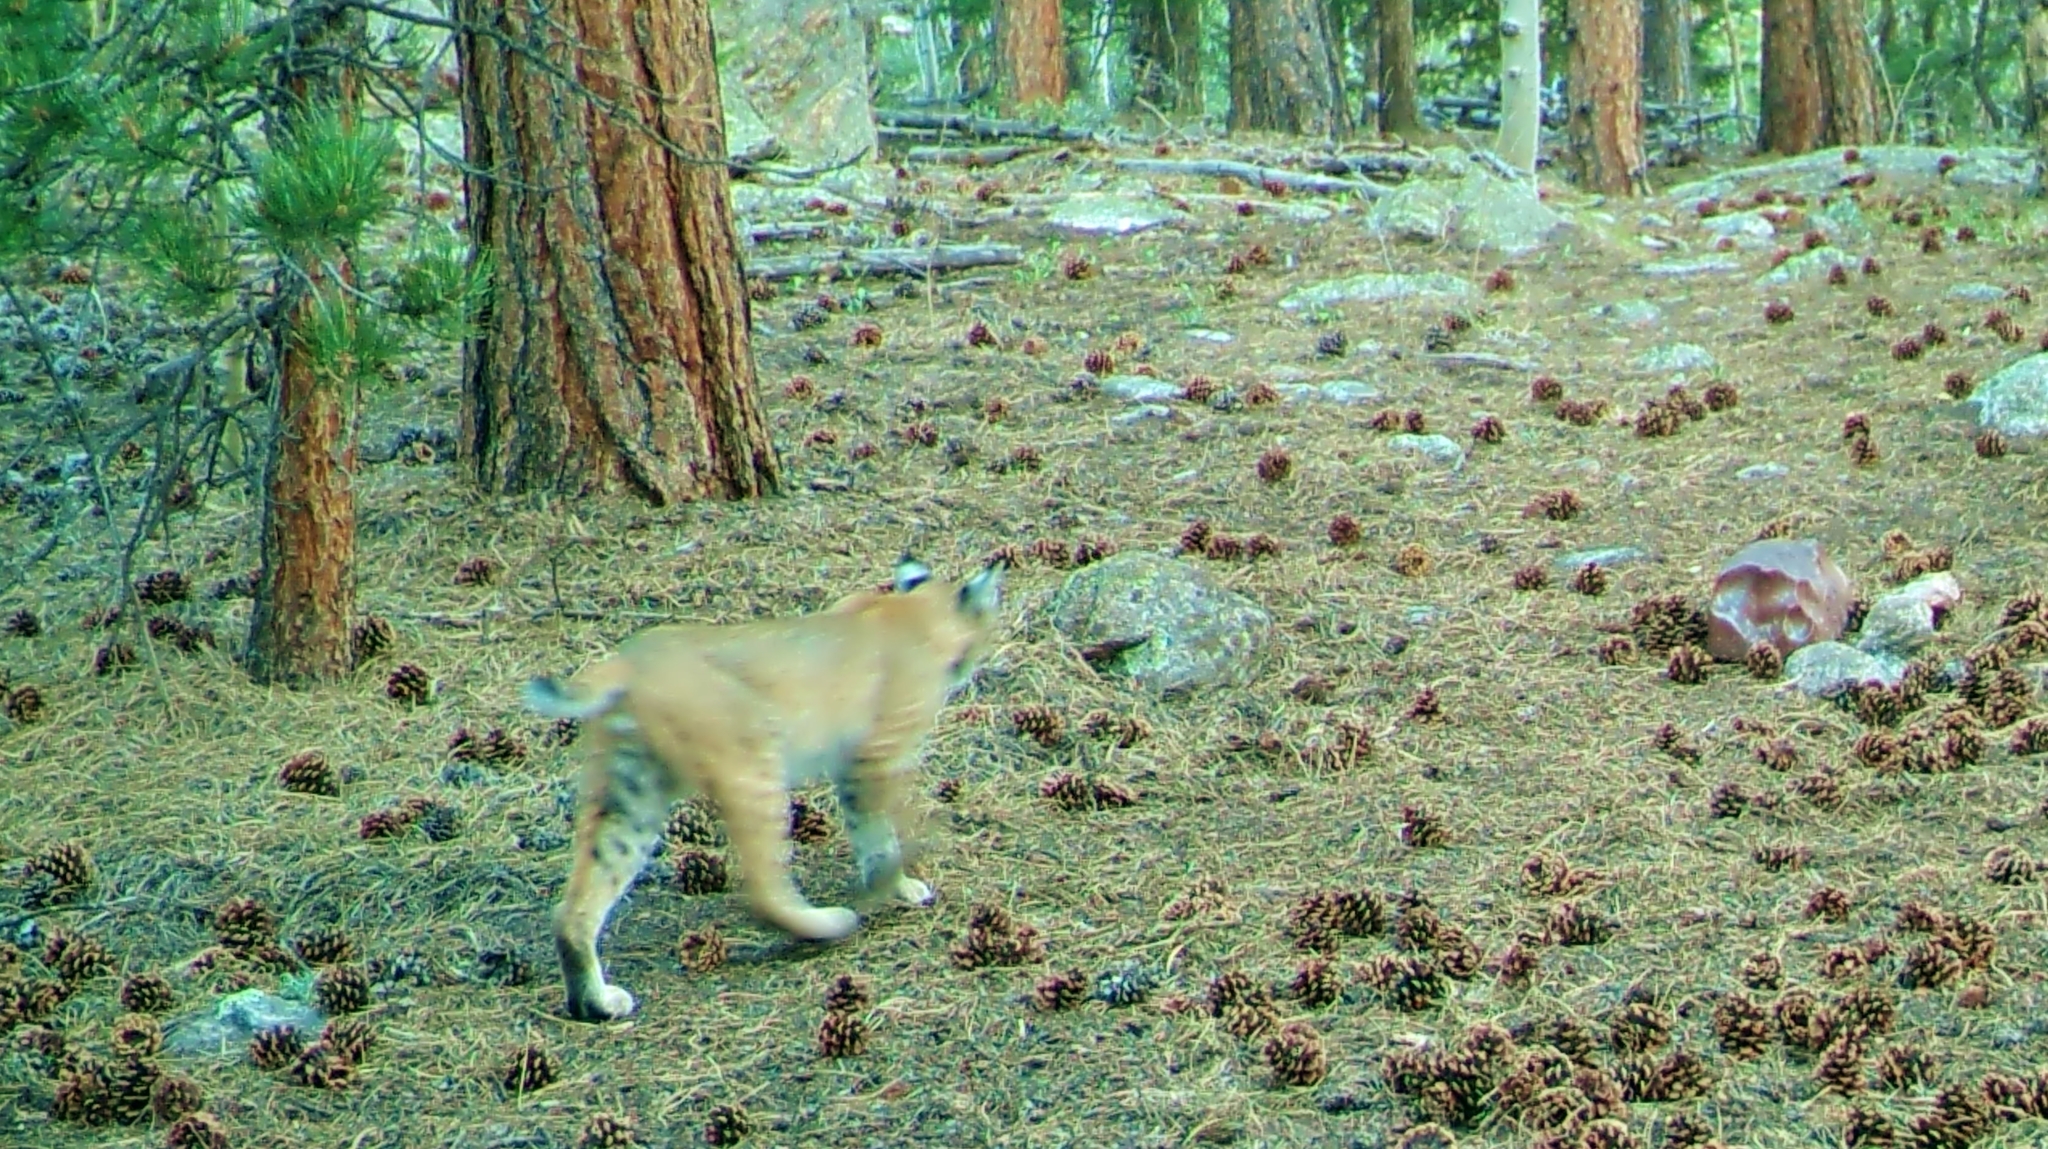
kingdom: Animalia
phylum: Chordata
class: Mammalia
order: Carnivora
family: Felidae
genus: Lynx
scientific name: Lynx rufus
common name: Bobcat
